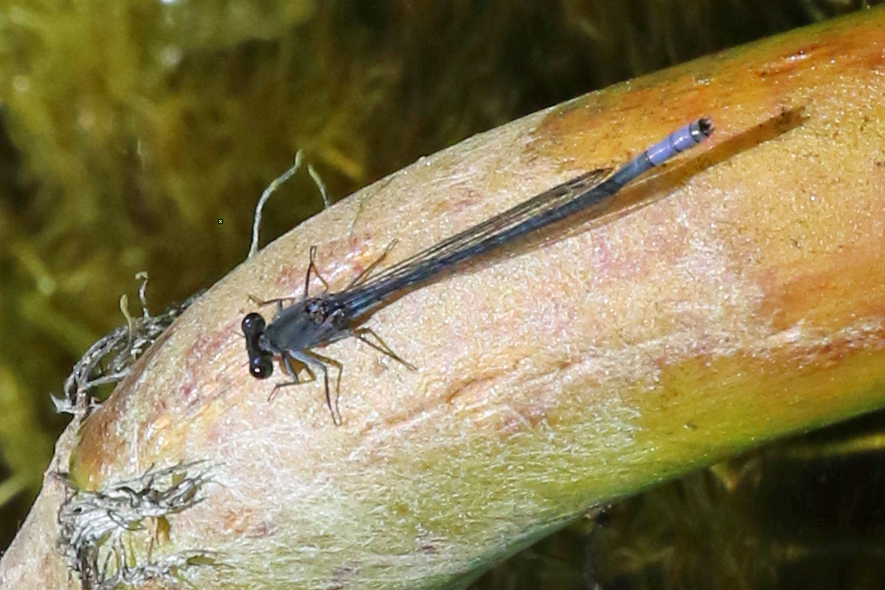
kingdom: Animalia
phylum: Arthropoda
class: Insecta
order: Odonata
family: Coenagrionidae
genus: Pseudagrion
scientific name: Pseudagrion draconis
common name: Mountain sprite
